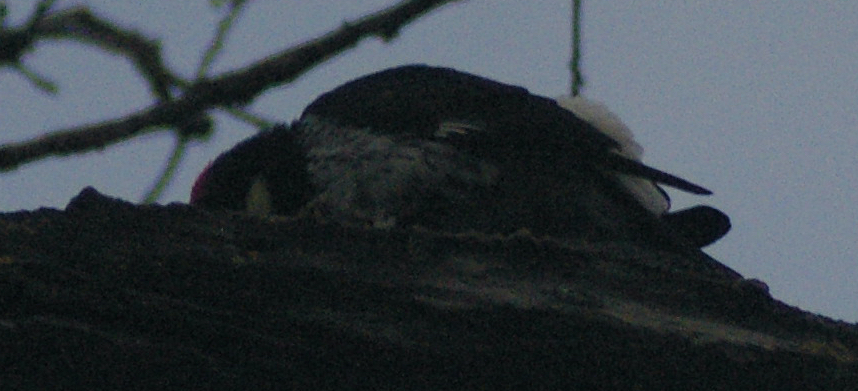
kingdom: Animalia
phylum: Chordata
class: Aves
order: Piciformes
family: Picidae
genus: Melanerpes
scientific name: Melanerpes formicivorus
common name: Acorn woodpecker
